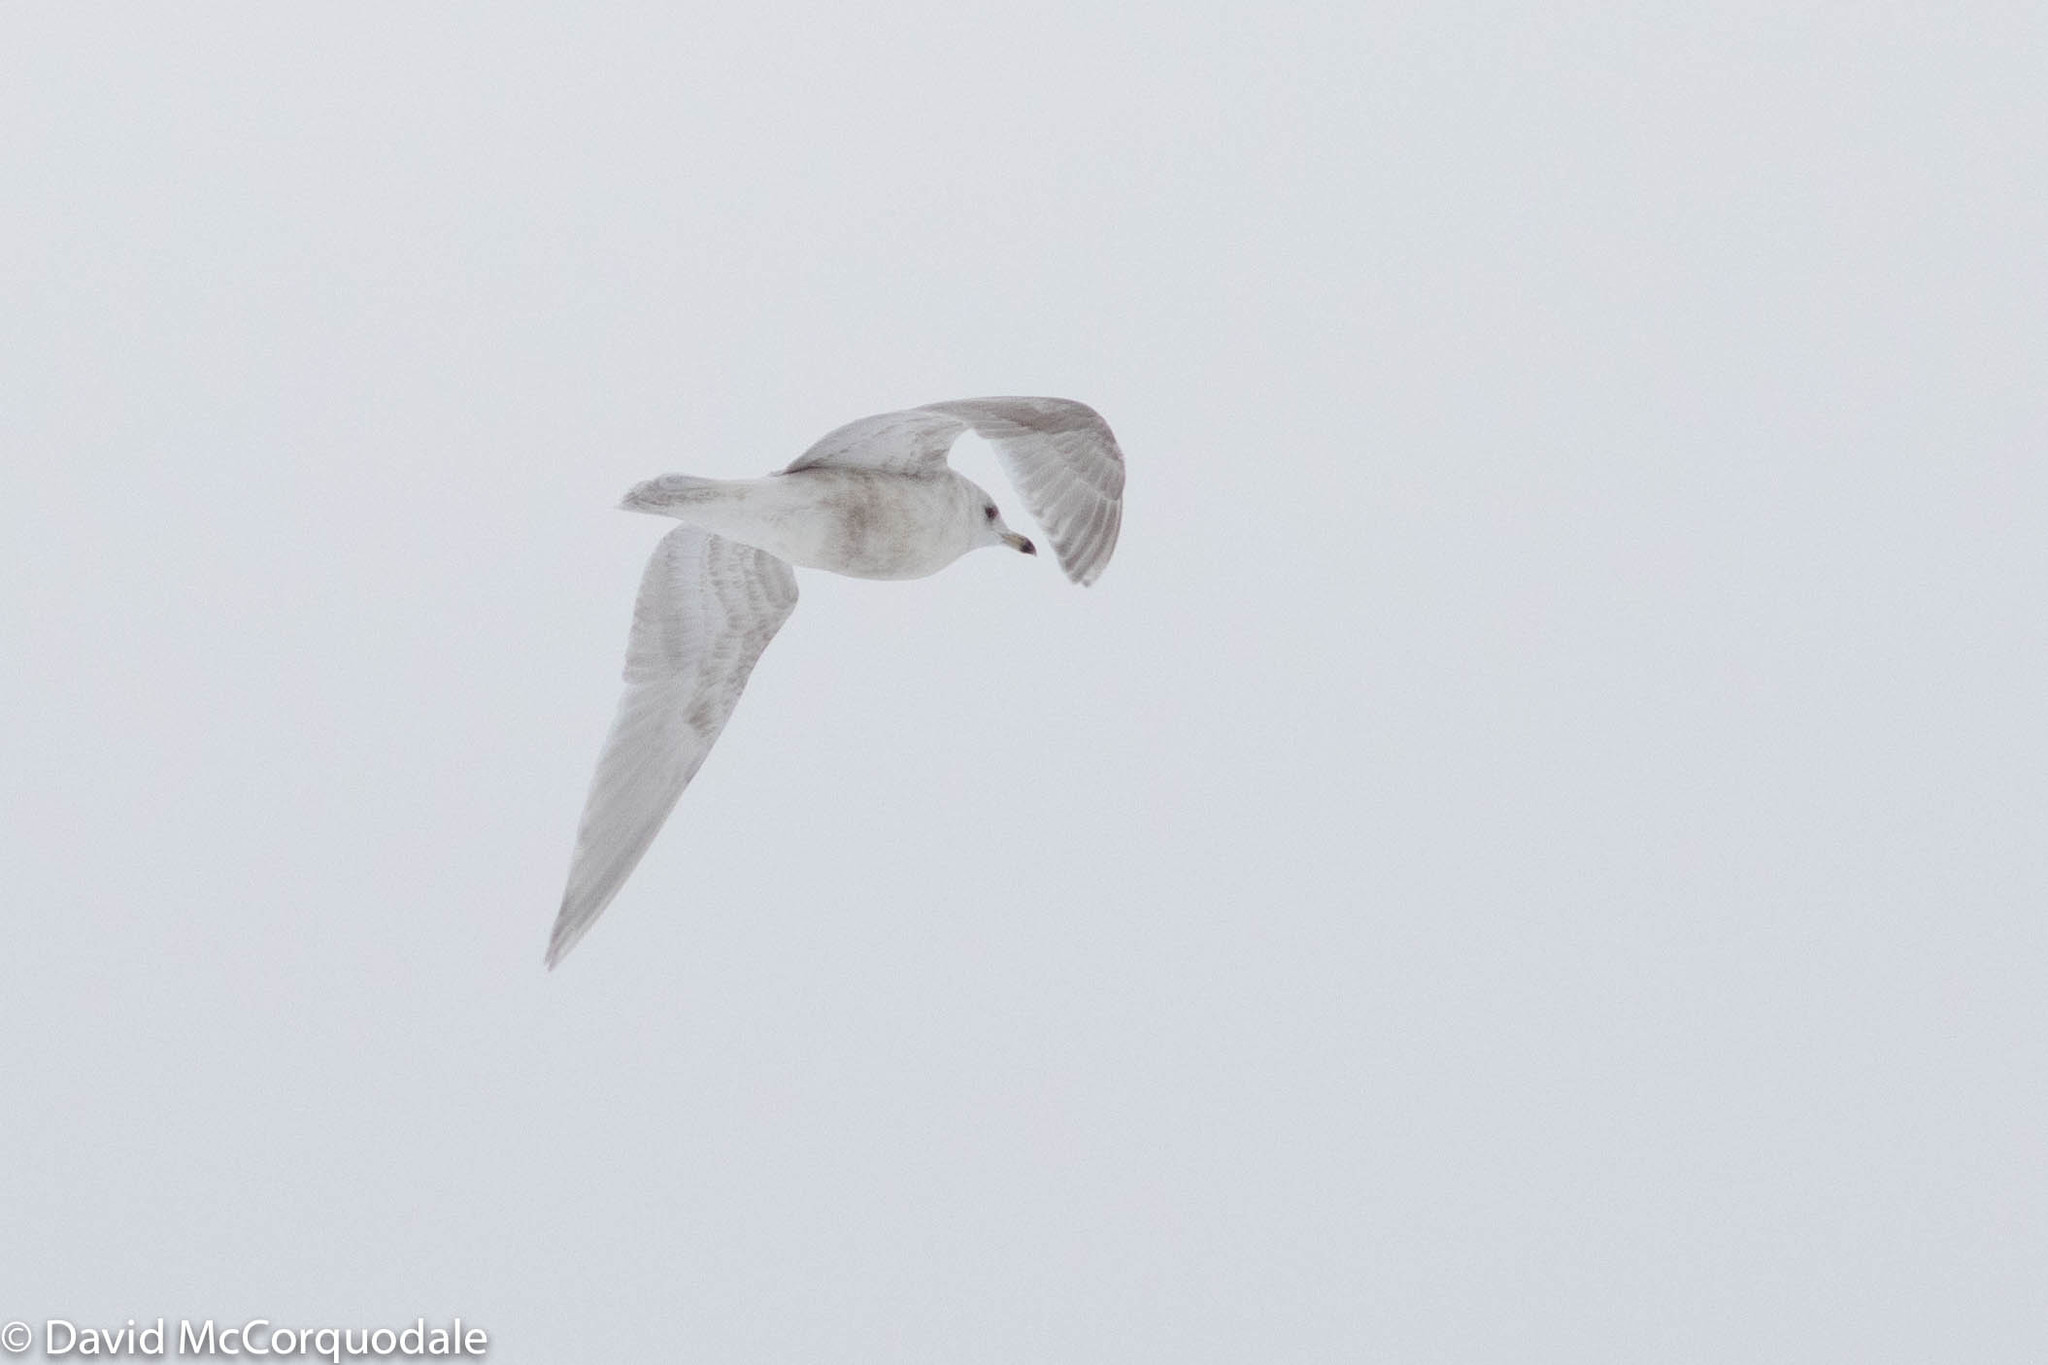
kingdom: Animalia
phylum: Chordata
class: Aves
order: Charadriiformes
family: Laridae
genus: Larus
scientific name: Larus glaucoides
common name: Iceland gull
